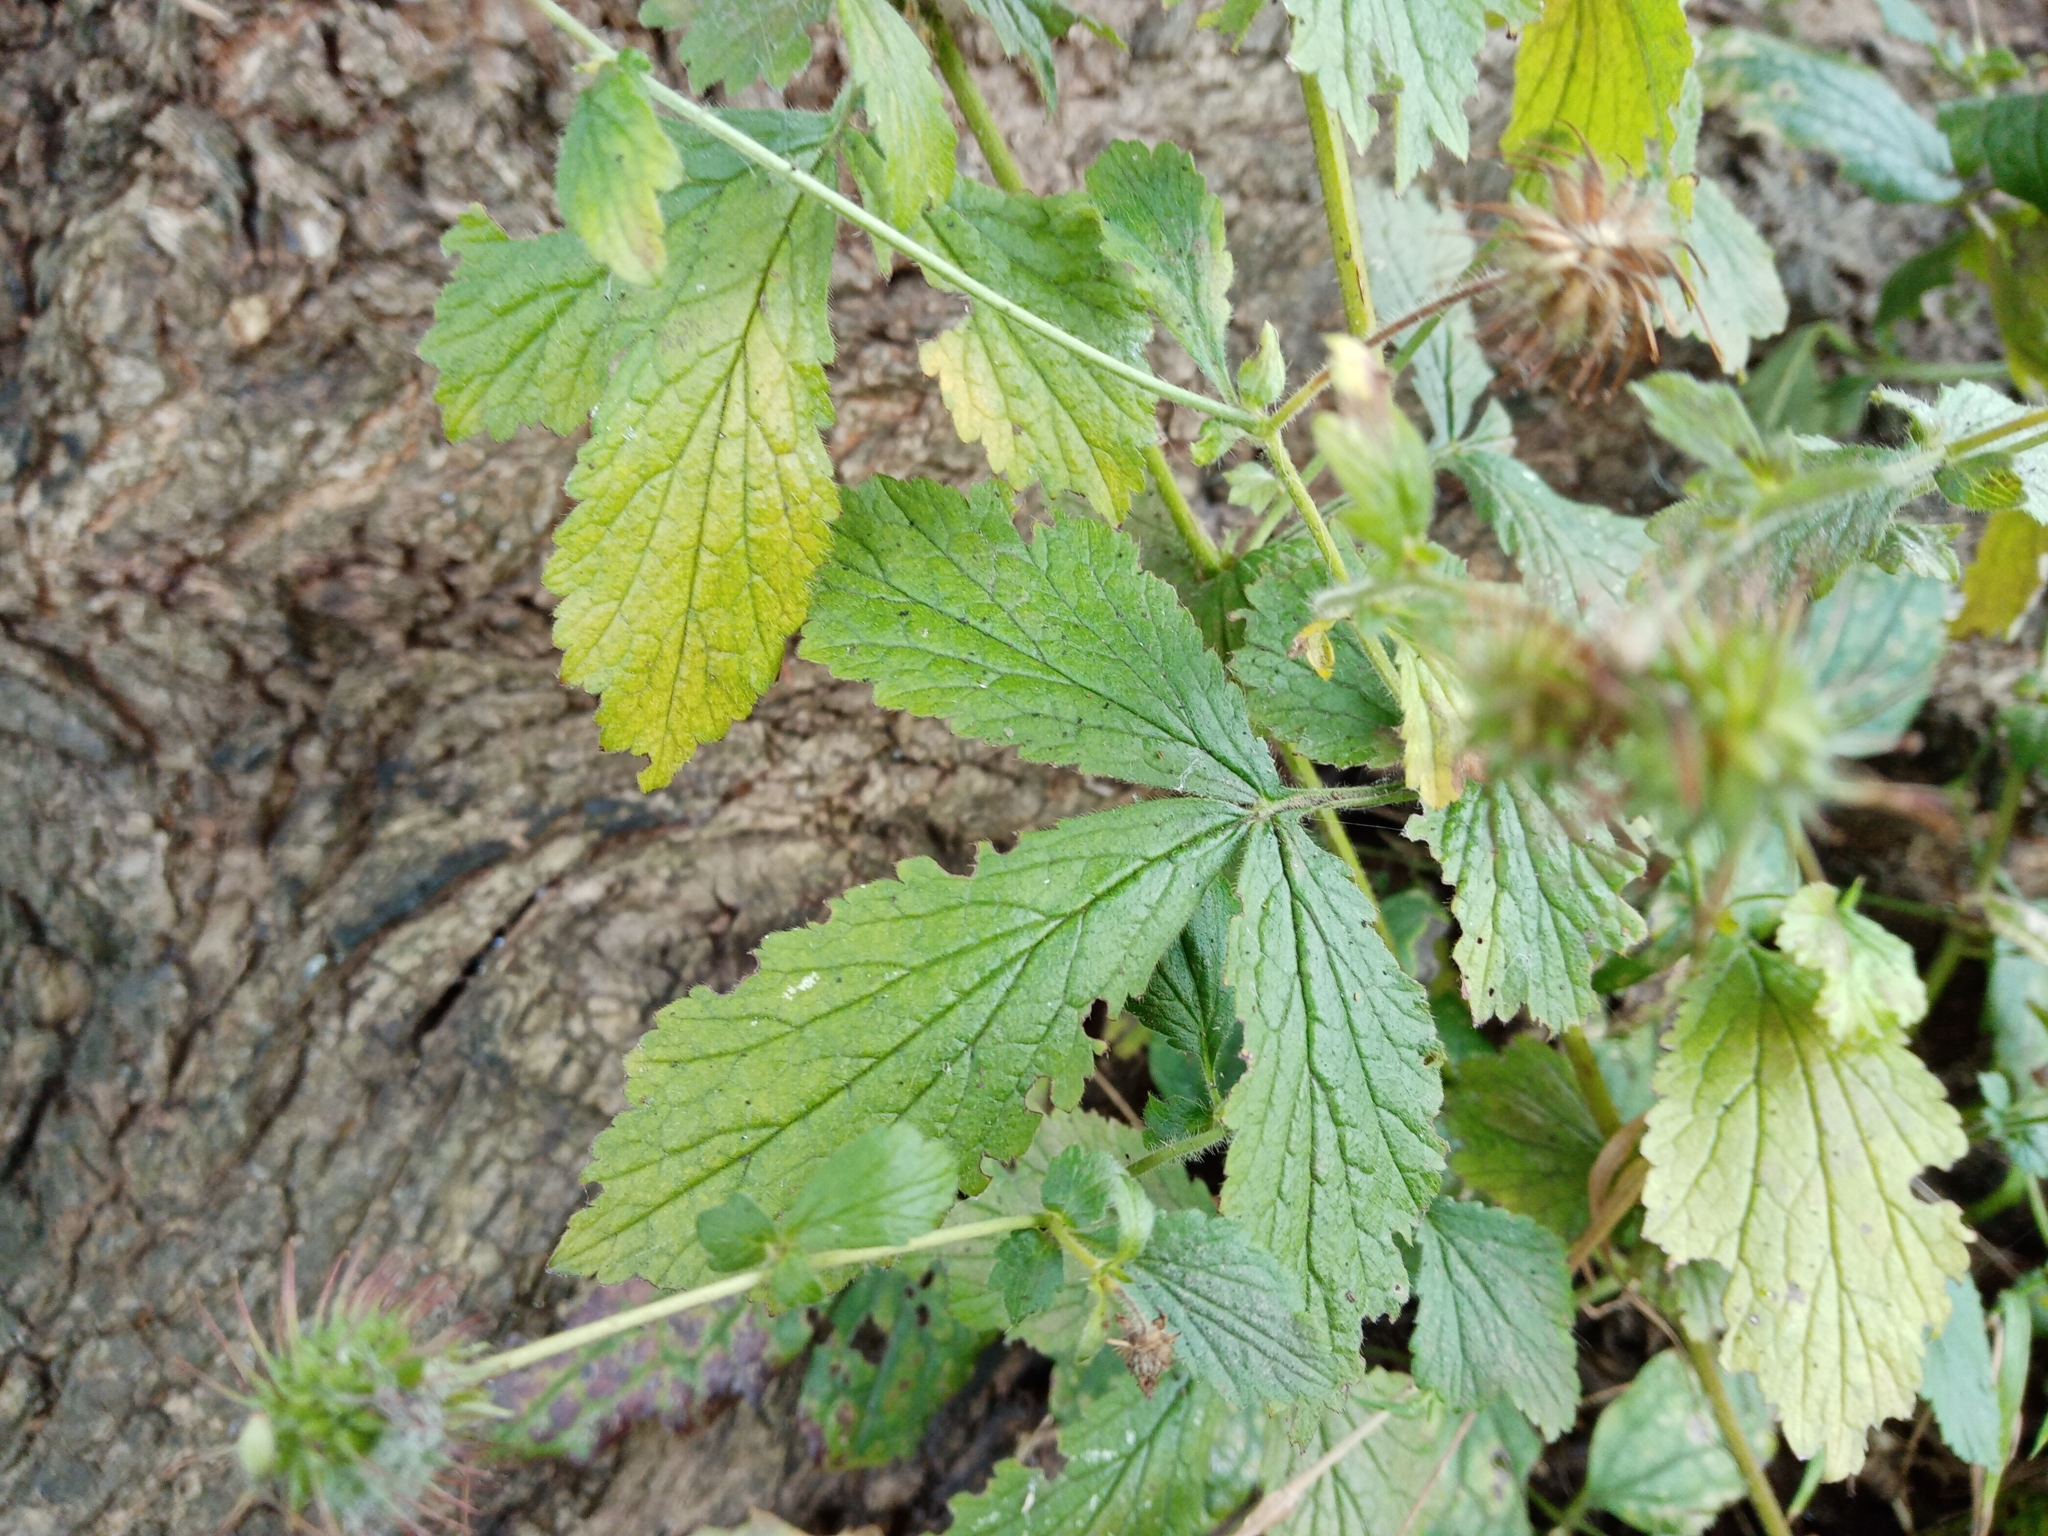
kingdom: Plantae
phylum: Tracheophyta
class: Magnoliopsida
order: Rosales
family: Rosaceae
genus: Geum
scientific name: Geum urbanum
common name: Wood avens
